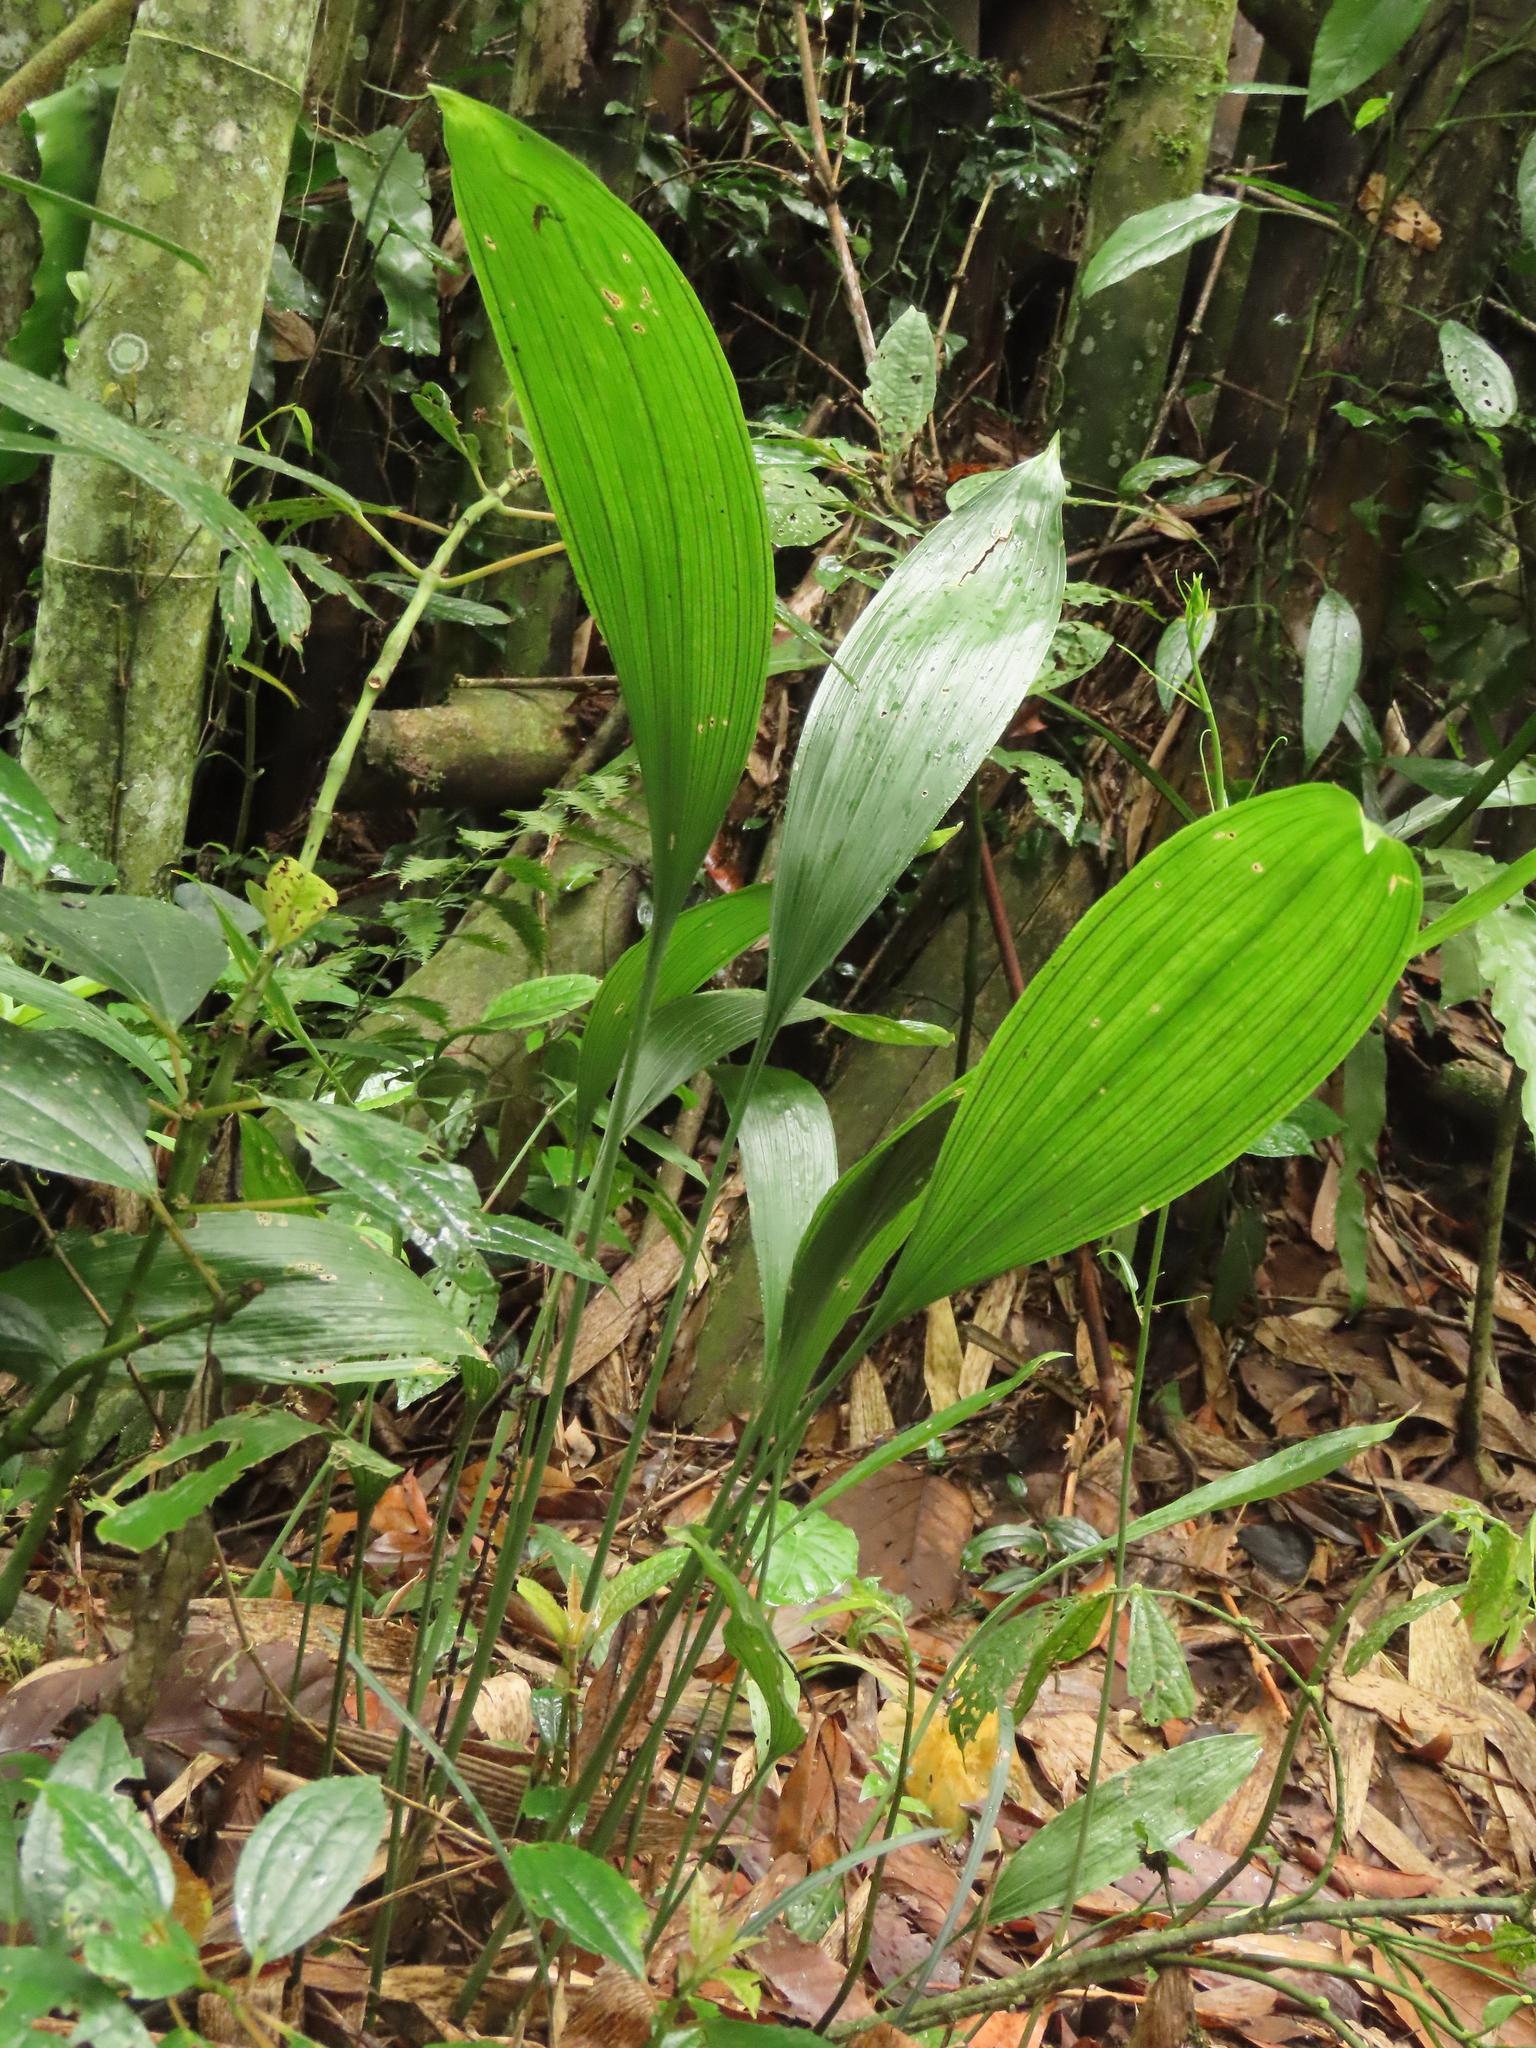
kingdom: Plantae
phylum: Tracheophyta
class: Liliopsida
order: Asparagales
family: Asparagaceae
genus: Peliosanthes
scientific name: Peliosanthes macrostegia
